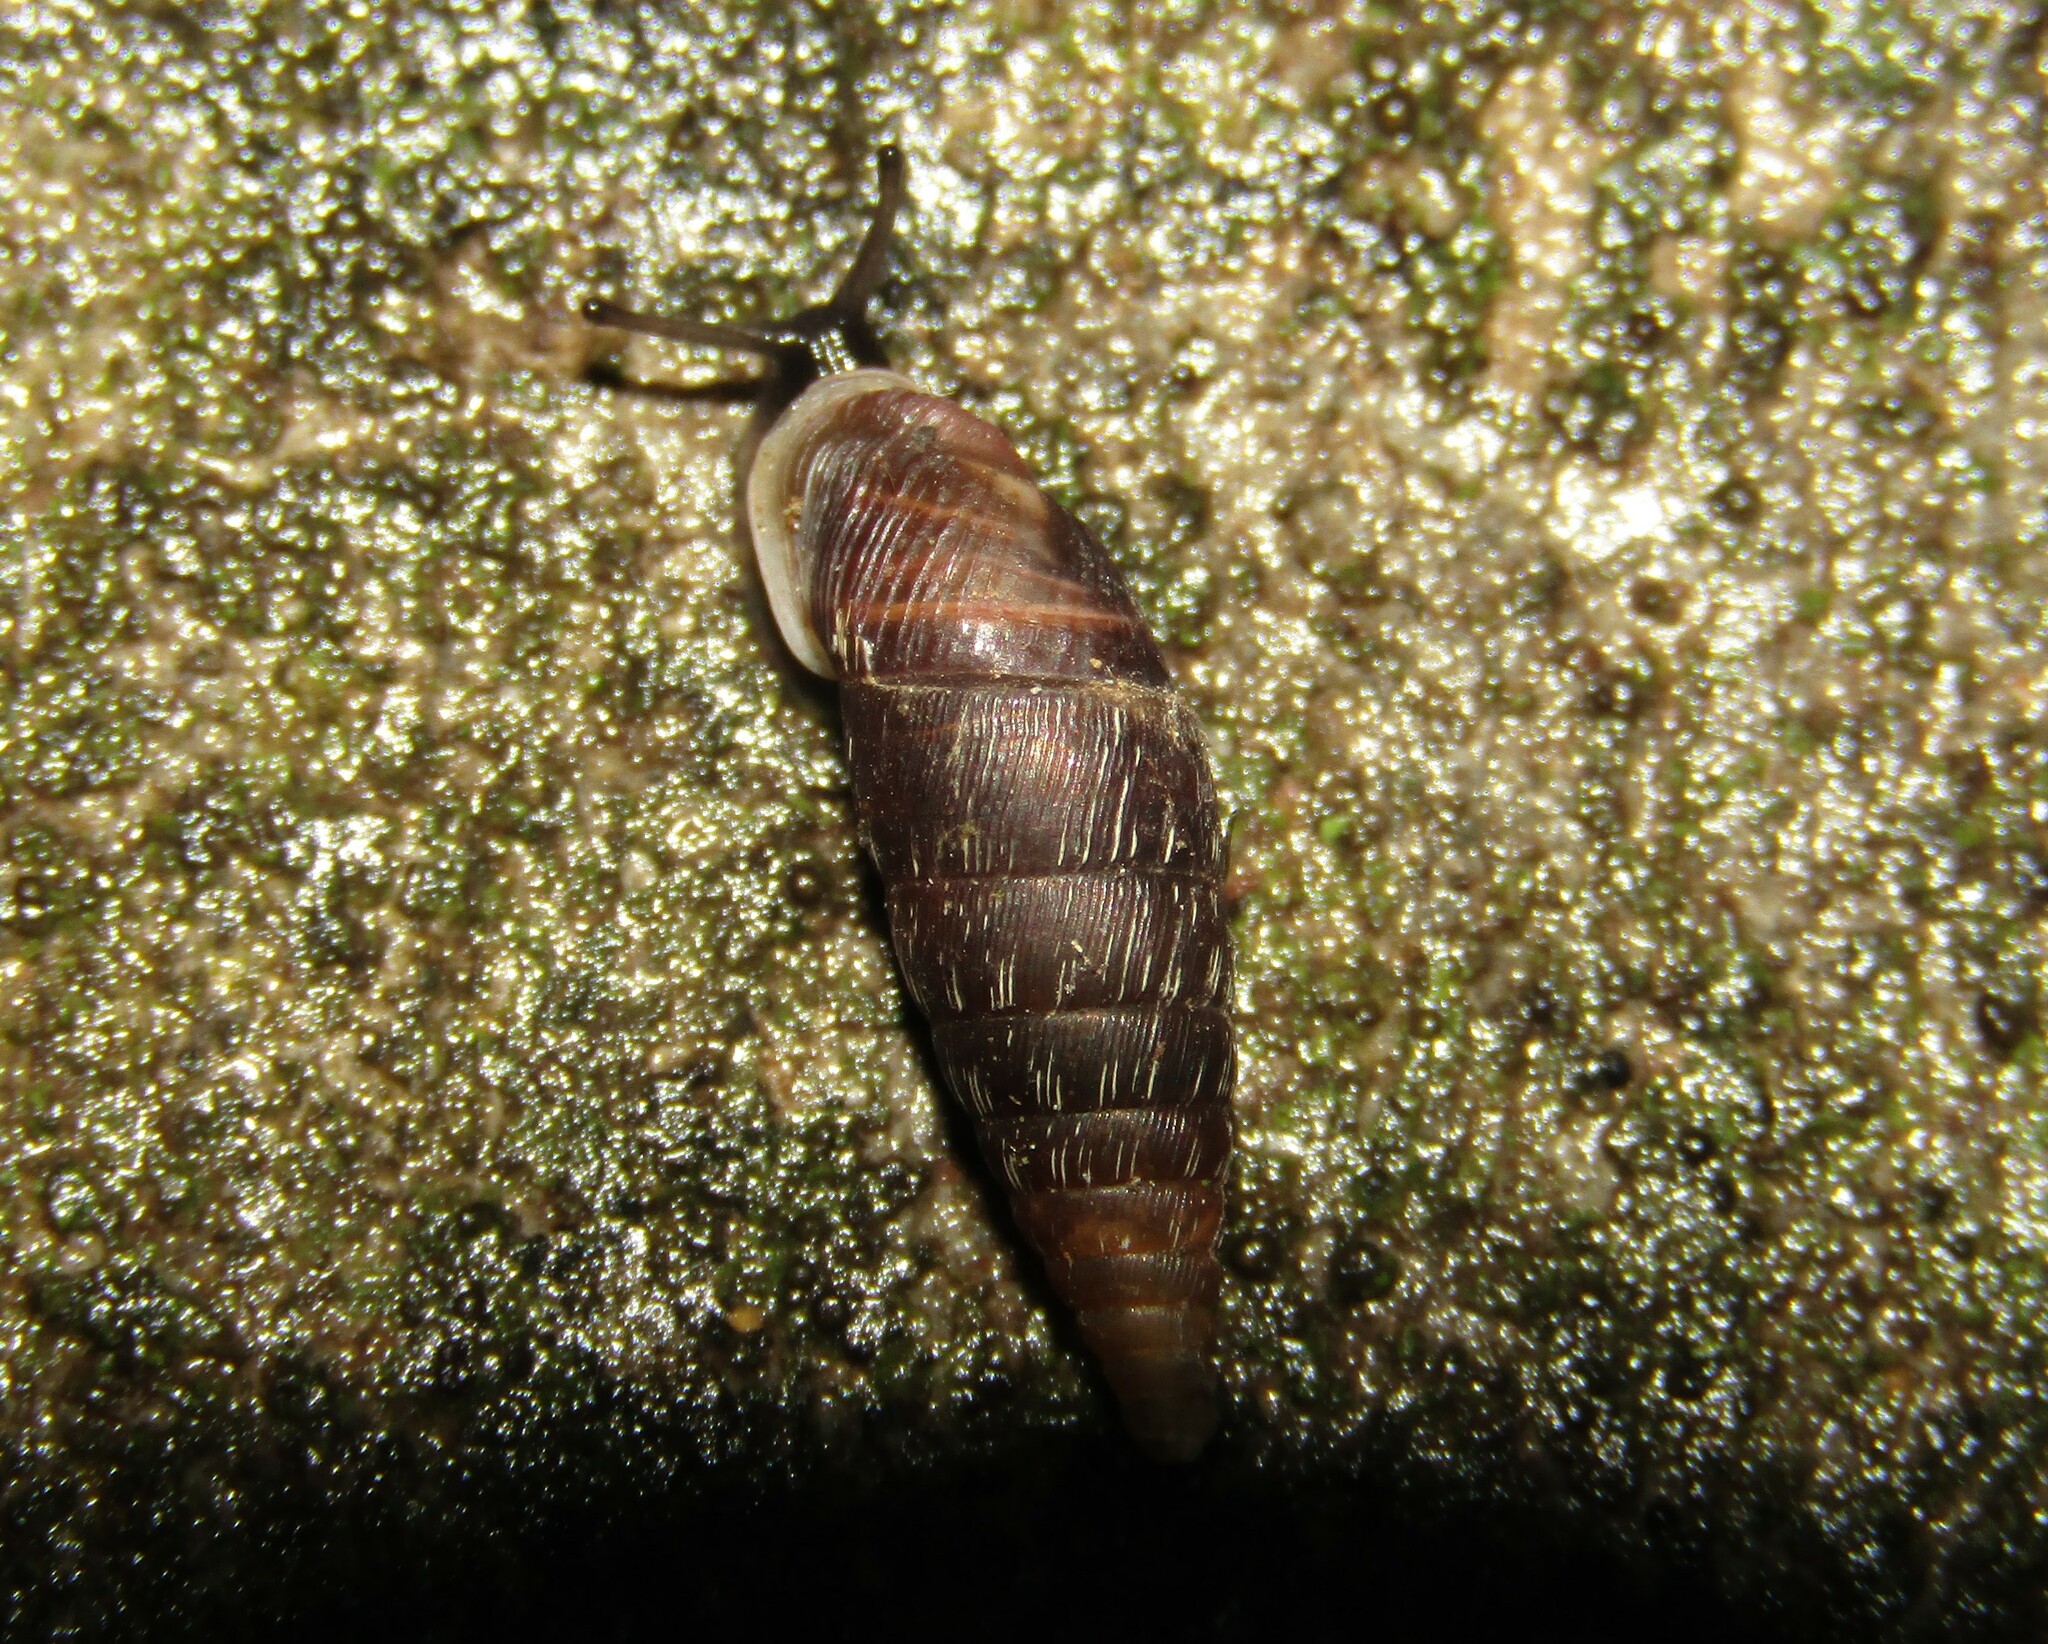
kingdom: Animalia
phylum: Mollusca
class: Gastropoda
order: Stylommatophora
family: Clausiliidae
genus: Elia
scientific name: Elia novorossica
